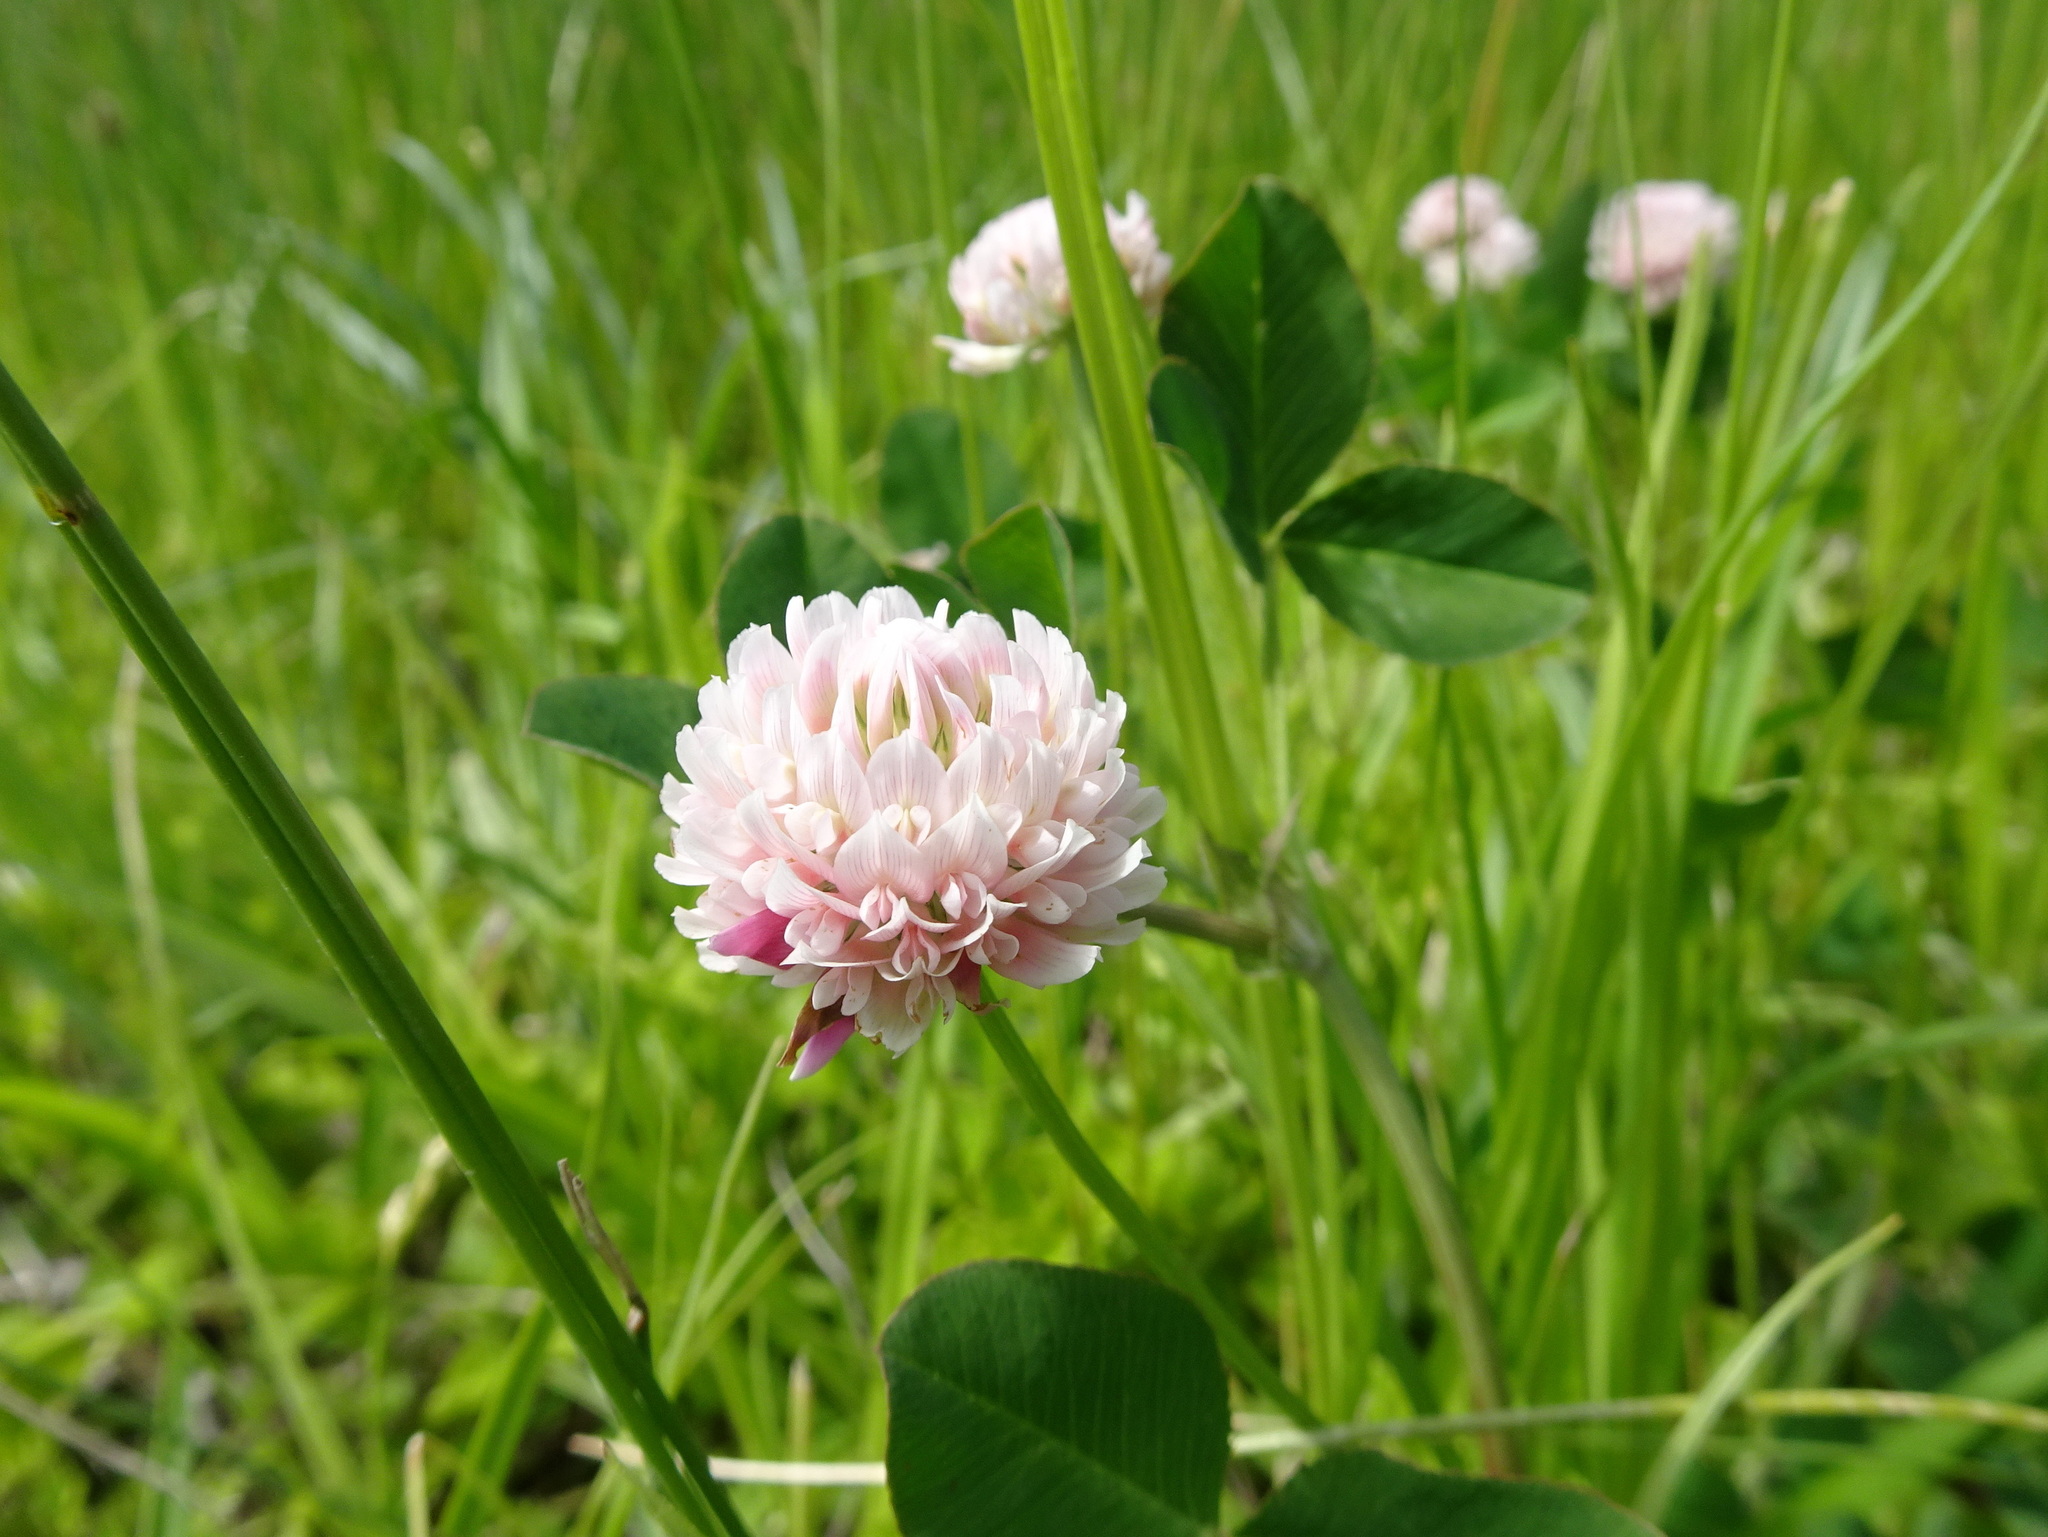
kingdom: Plantae
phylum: Tracheophyta
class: Magnoliopsida
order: Fabales
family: Fabaceae
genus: Trifolium
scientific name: Trifolium hybridum
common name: Alsike clover
